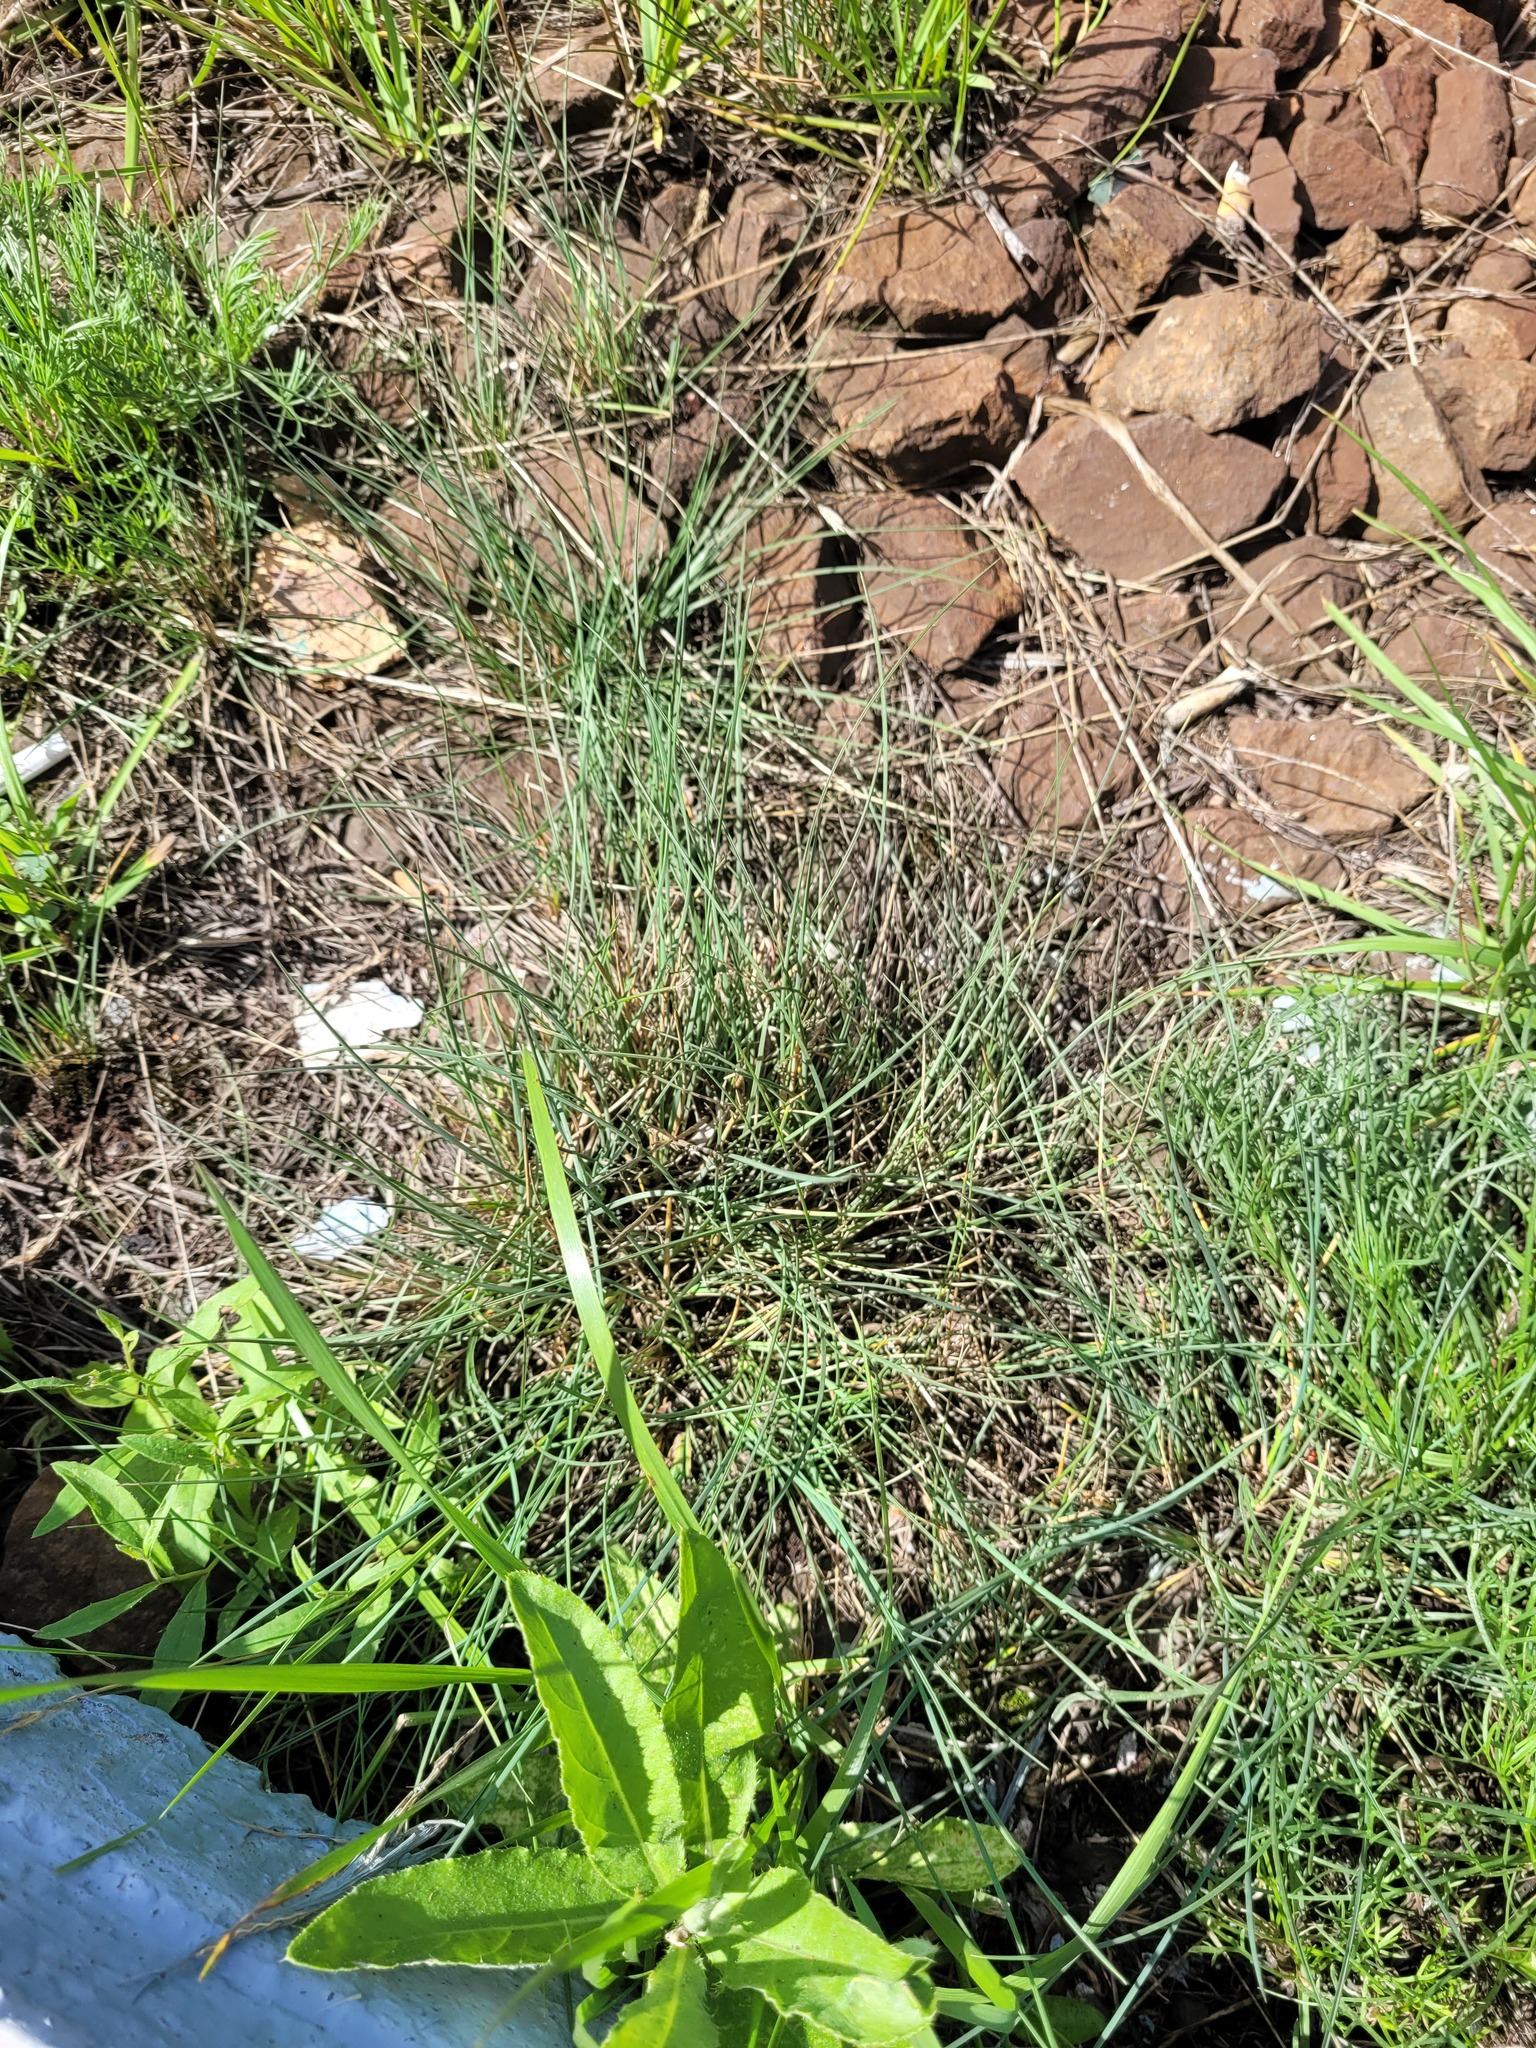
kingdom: Plantae
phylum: Tracheophyta
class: Liliopsida
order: Poales
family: Poaceae
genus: Festuca
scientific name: Festuca valesiaca
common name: Volga fescue
